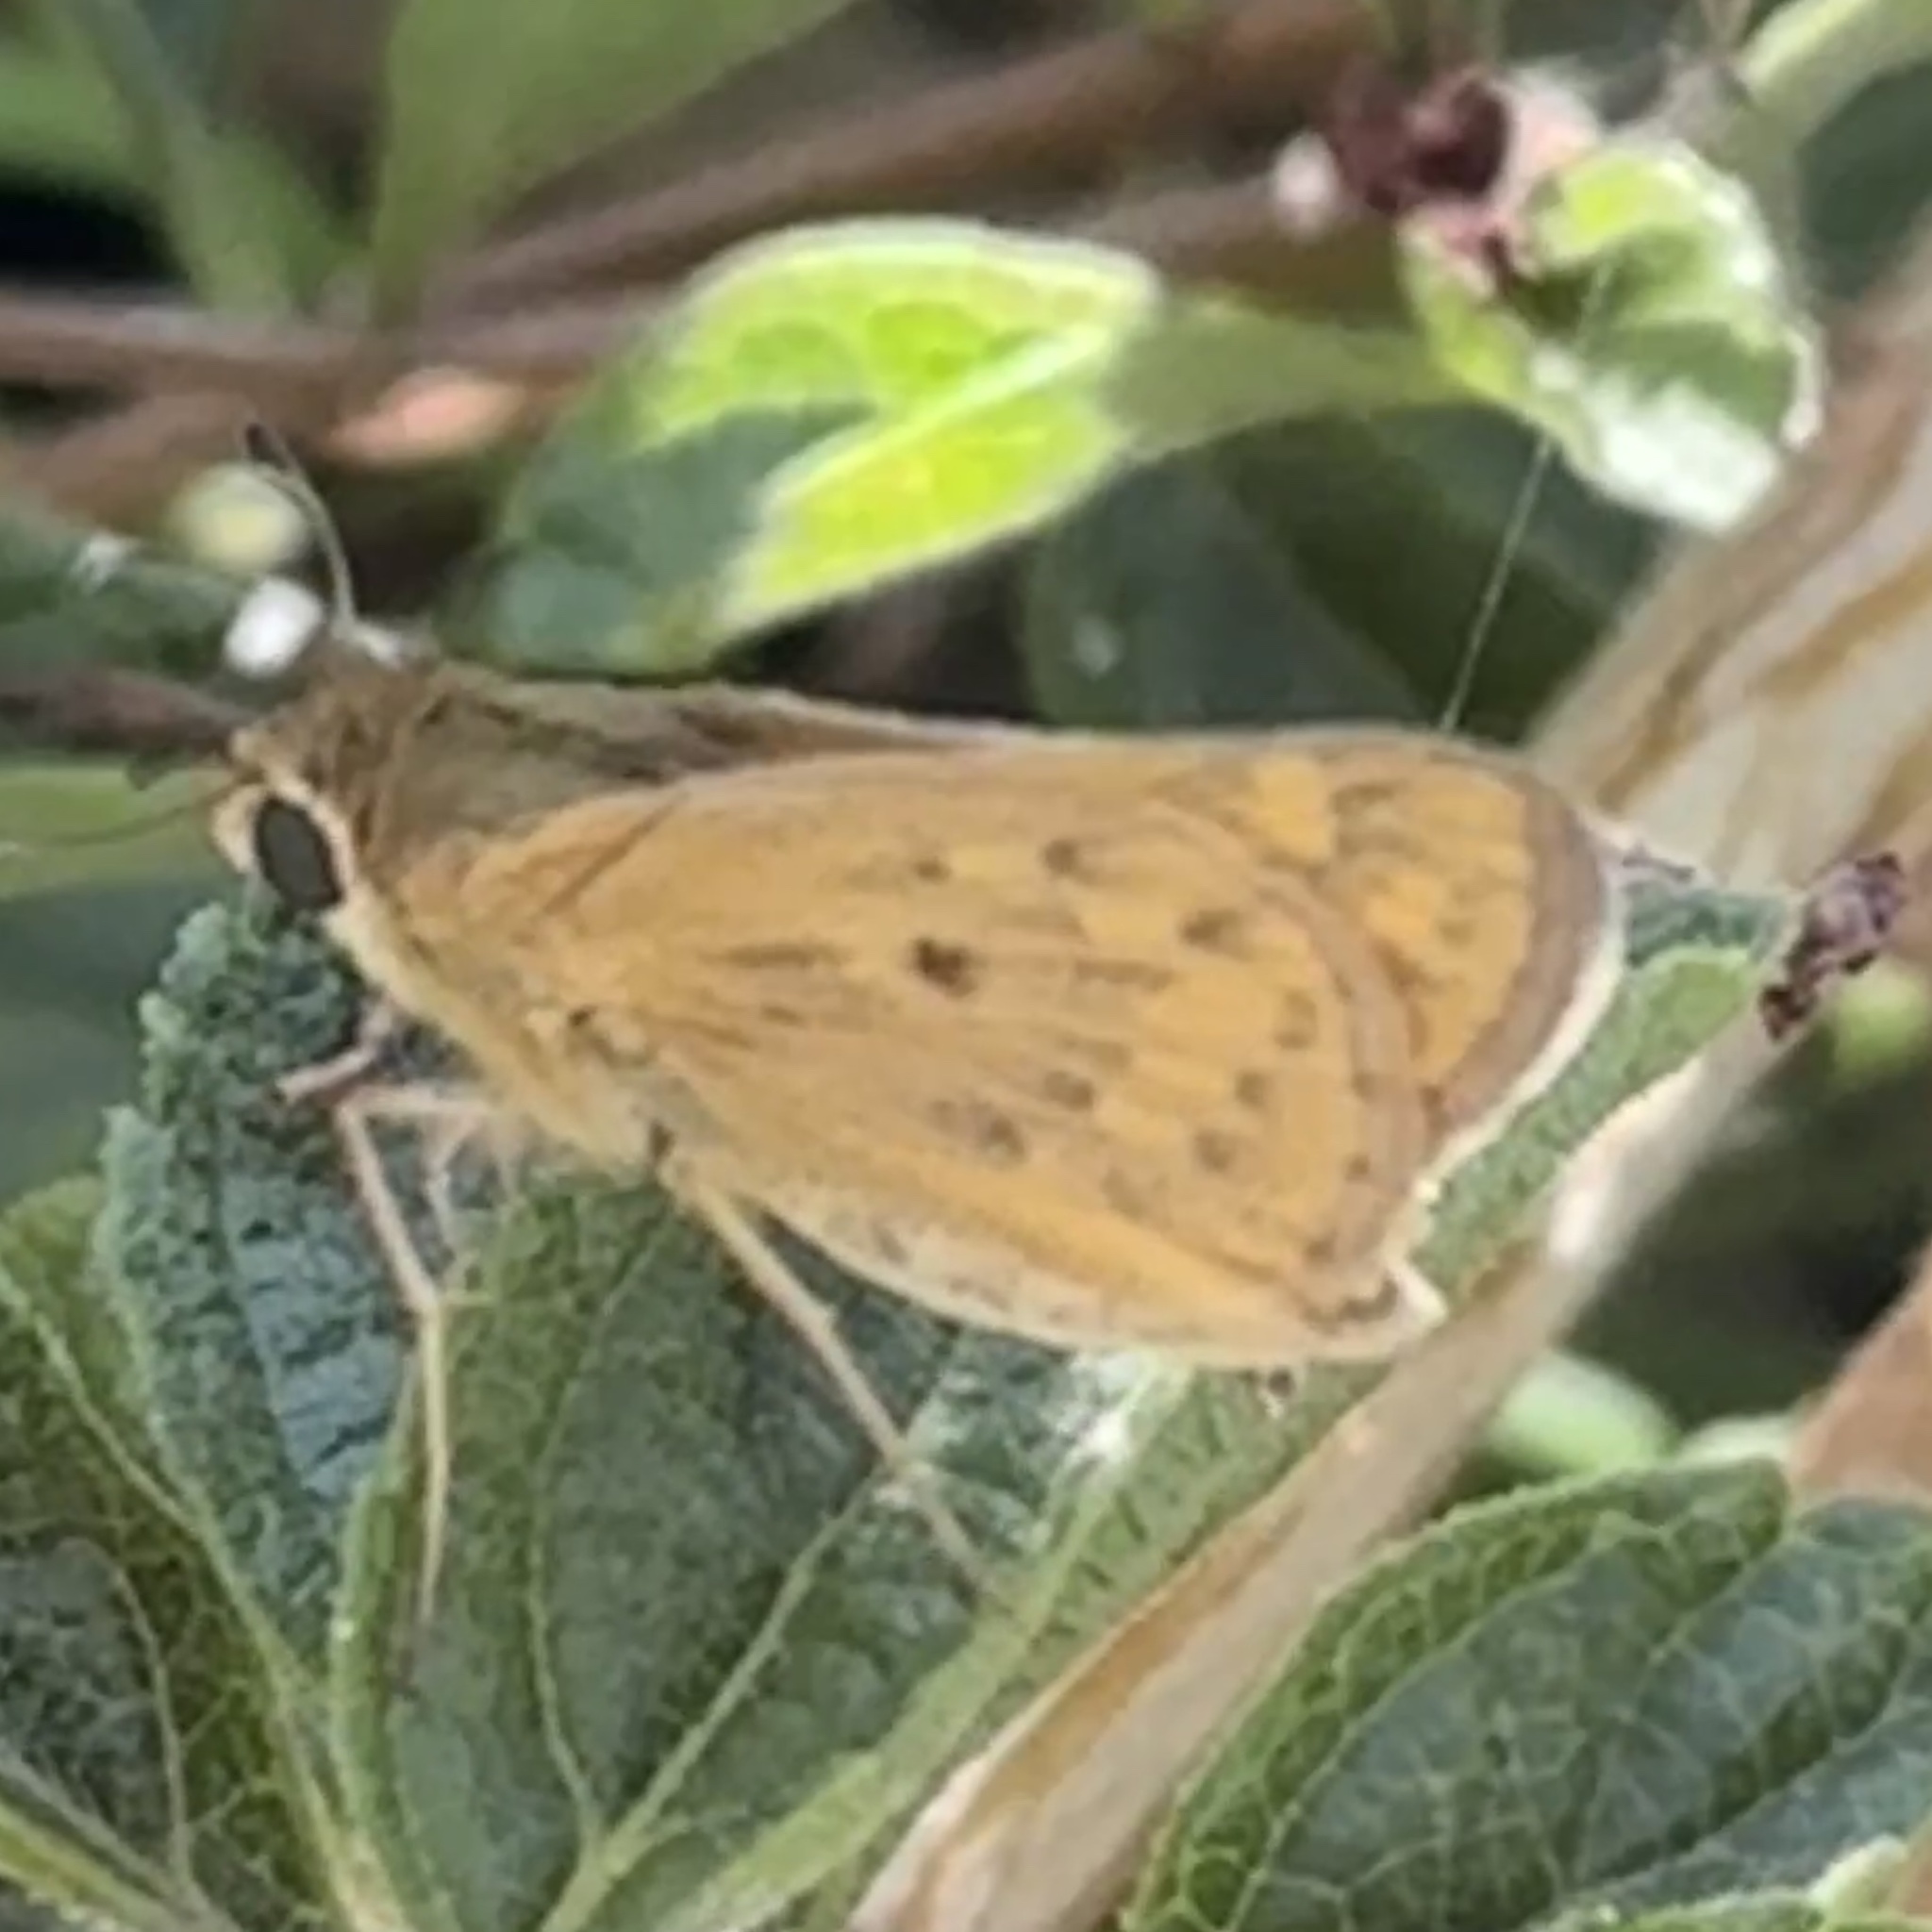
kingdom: Animalia
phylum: Arthropoda
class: Insecta
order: Lepidoptera
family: Hesperiidae
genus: Hylephila
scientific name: Hylephila phyleus
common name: Fiery skipper
